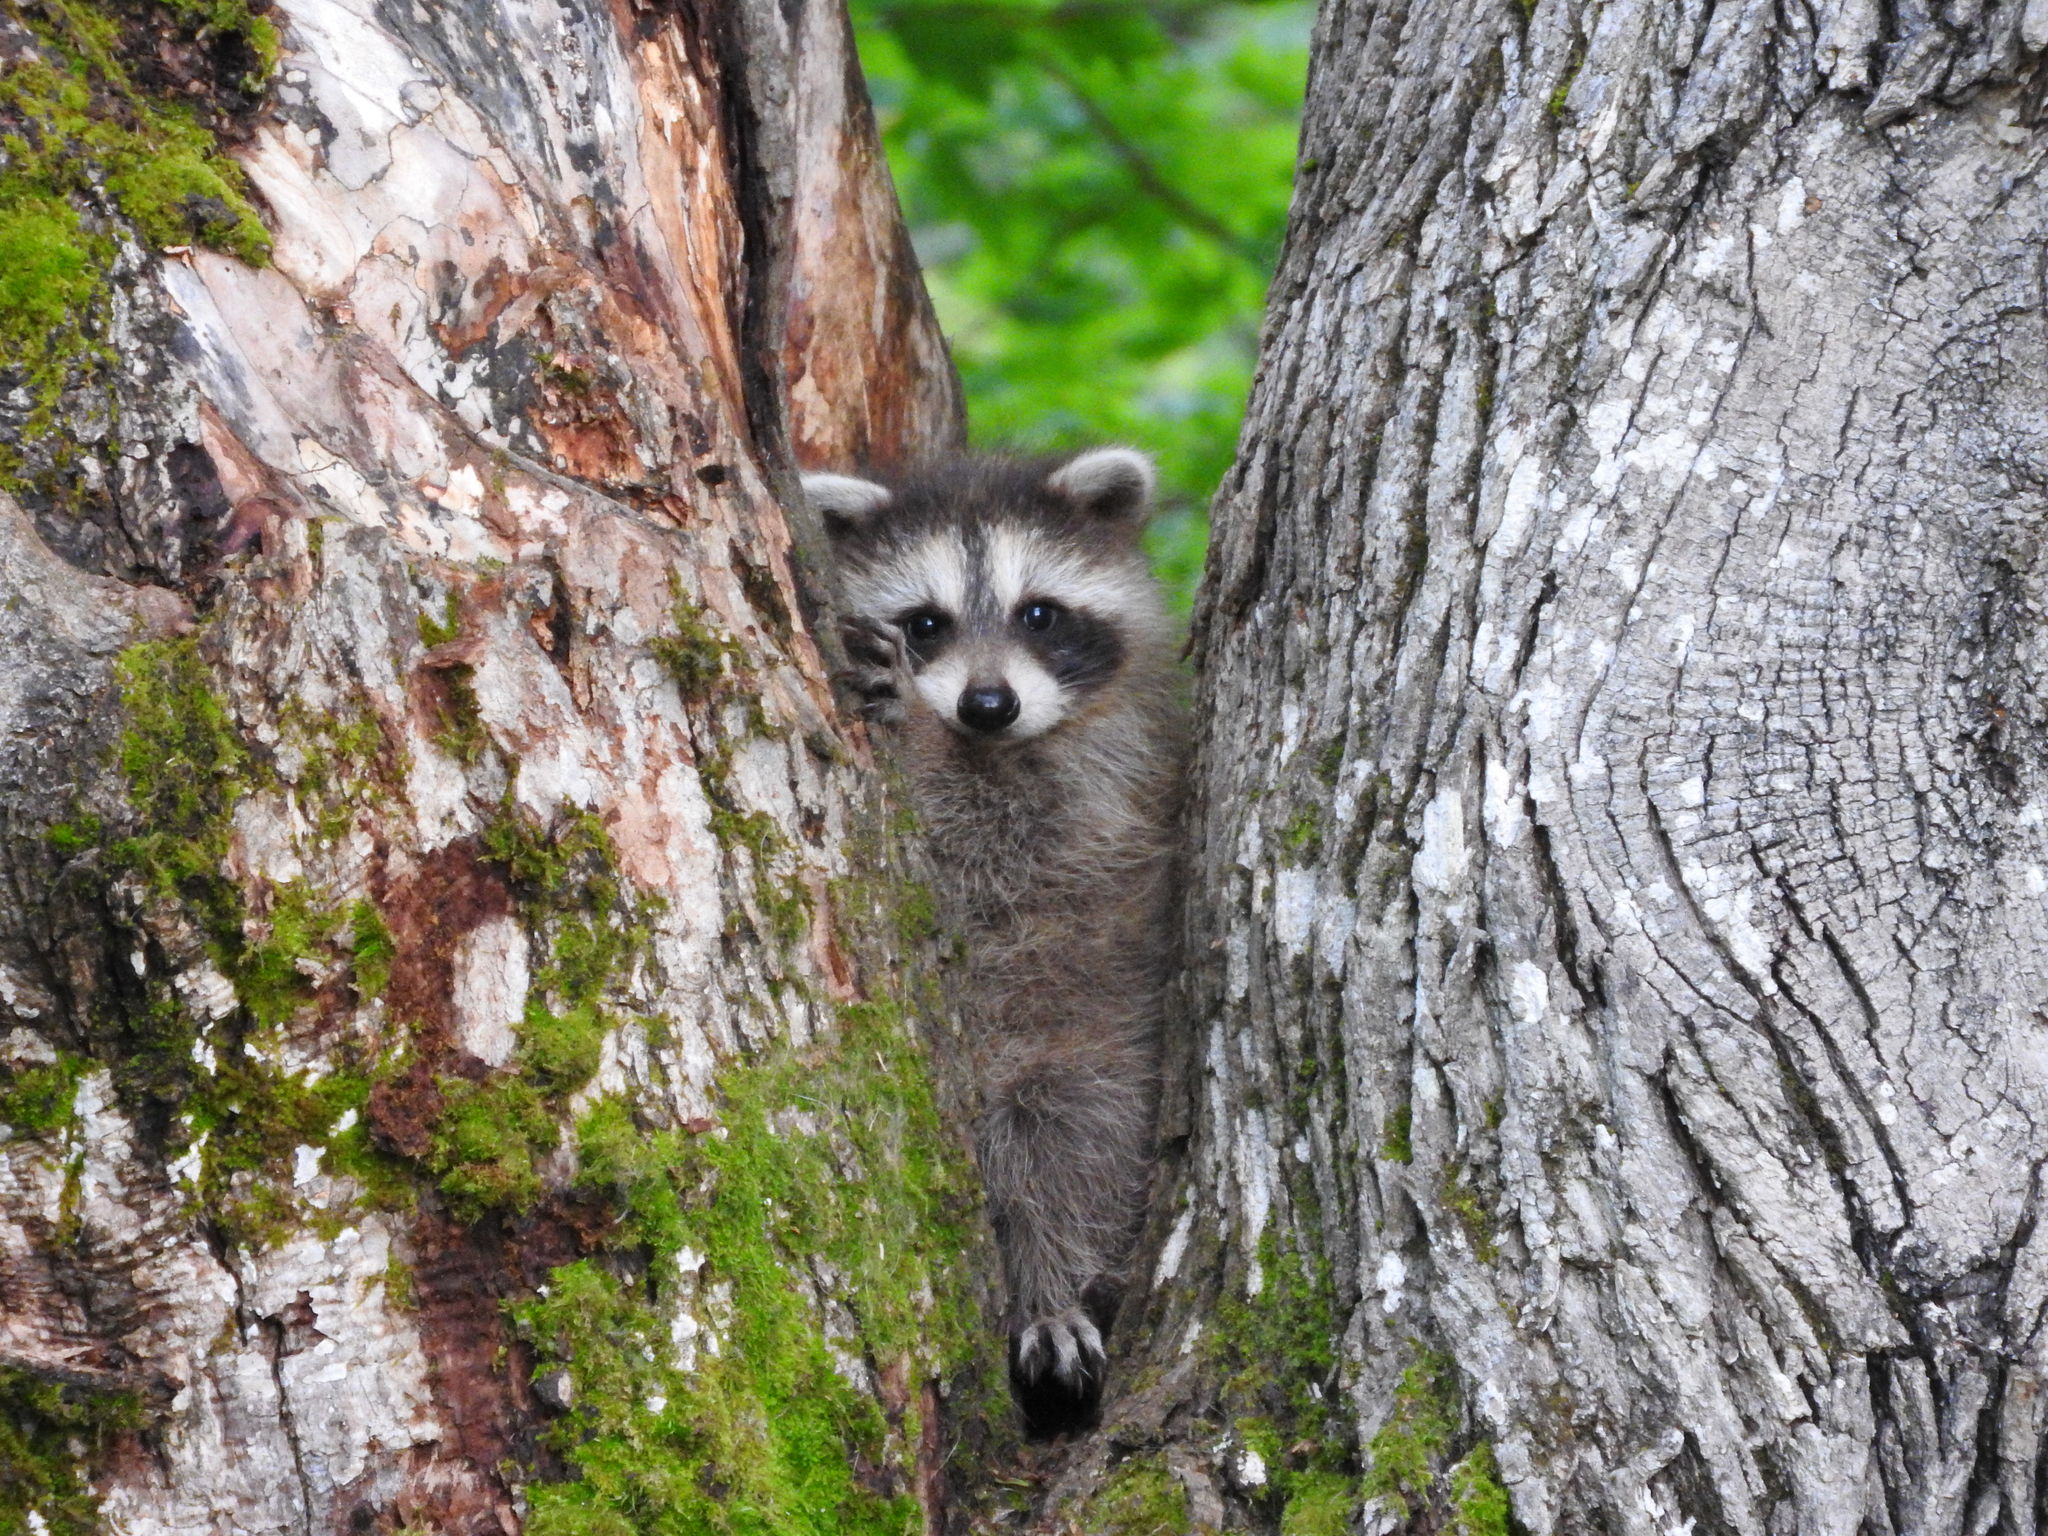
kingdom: Animalia
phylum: Chordata
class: Mammalia
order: Carnivora
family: Procyonidae
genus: Procyon
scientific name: Procyon lotor
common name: Raccoon
